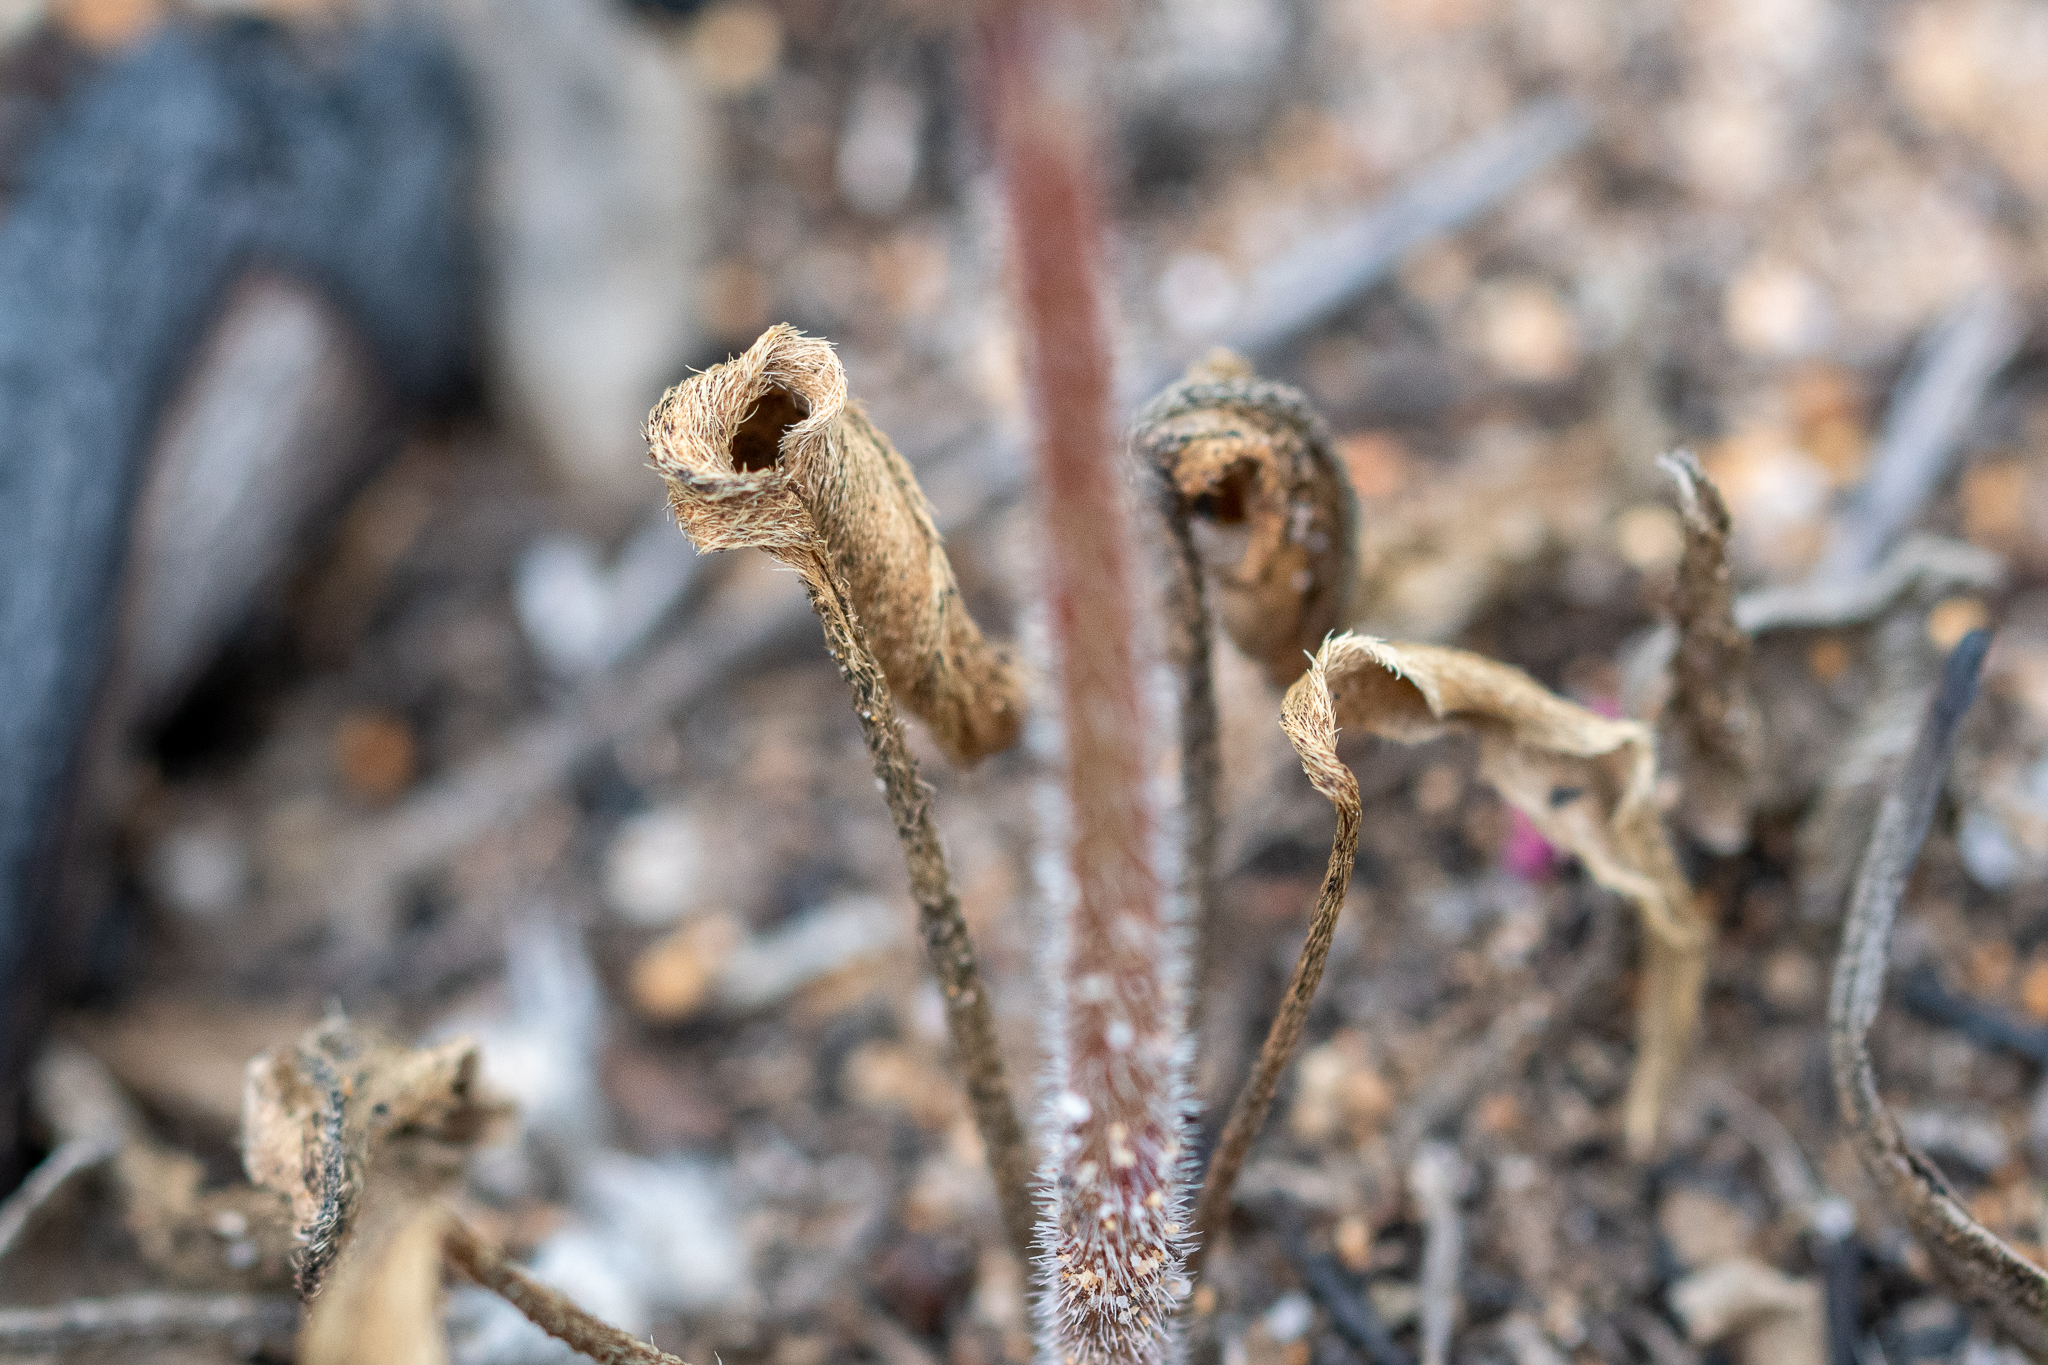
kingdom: Plantae
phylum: Tracheophyta
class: Magnoliopsida
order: Geraniales
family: Geraniaceae
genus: Pelargonium
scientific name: Pelargonium dipetalum
